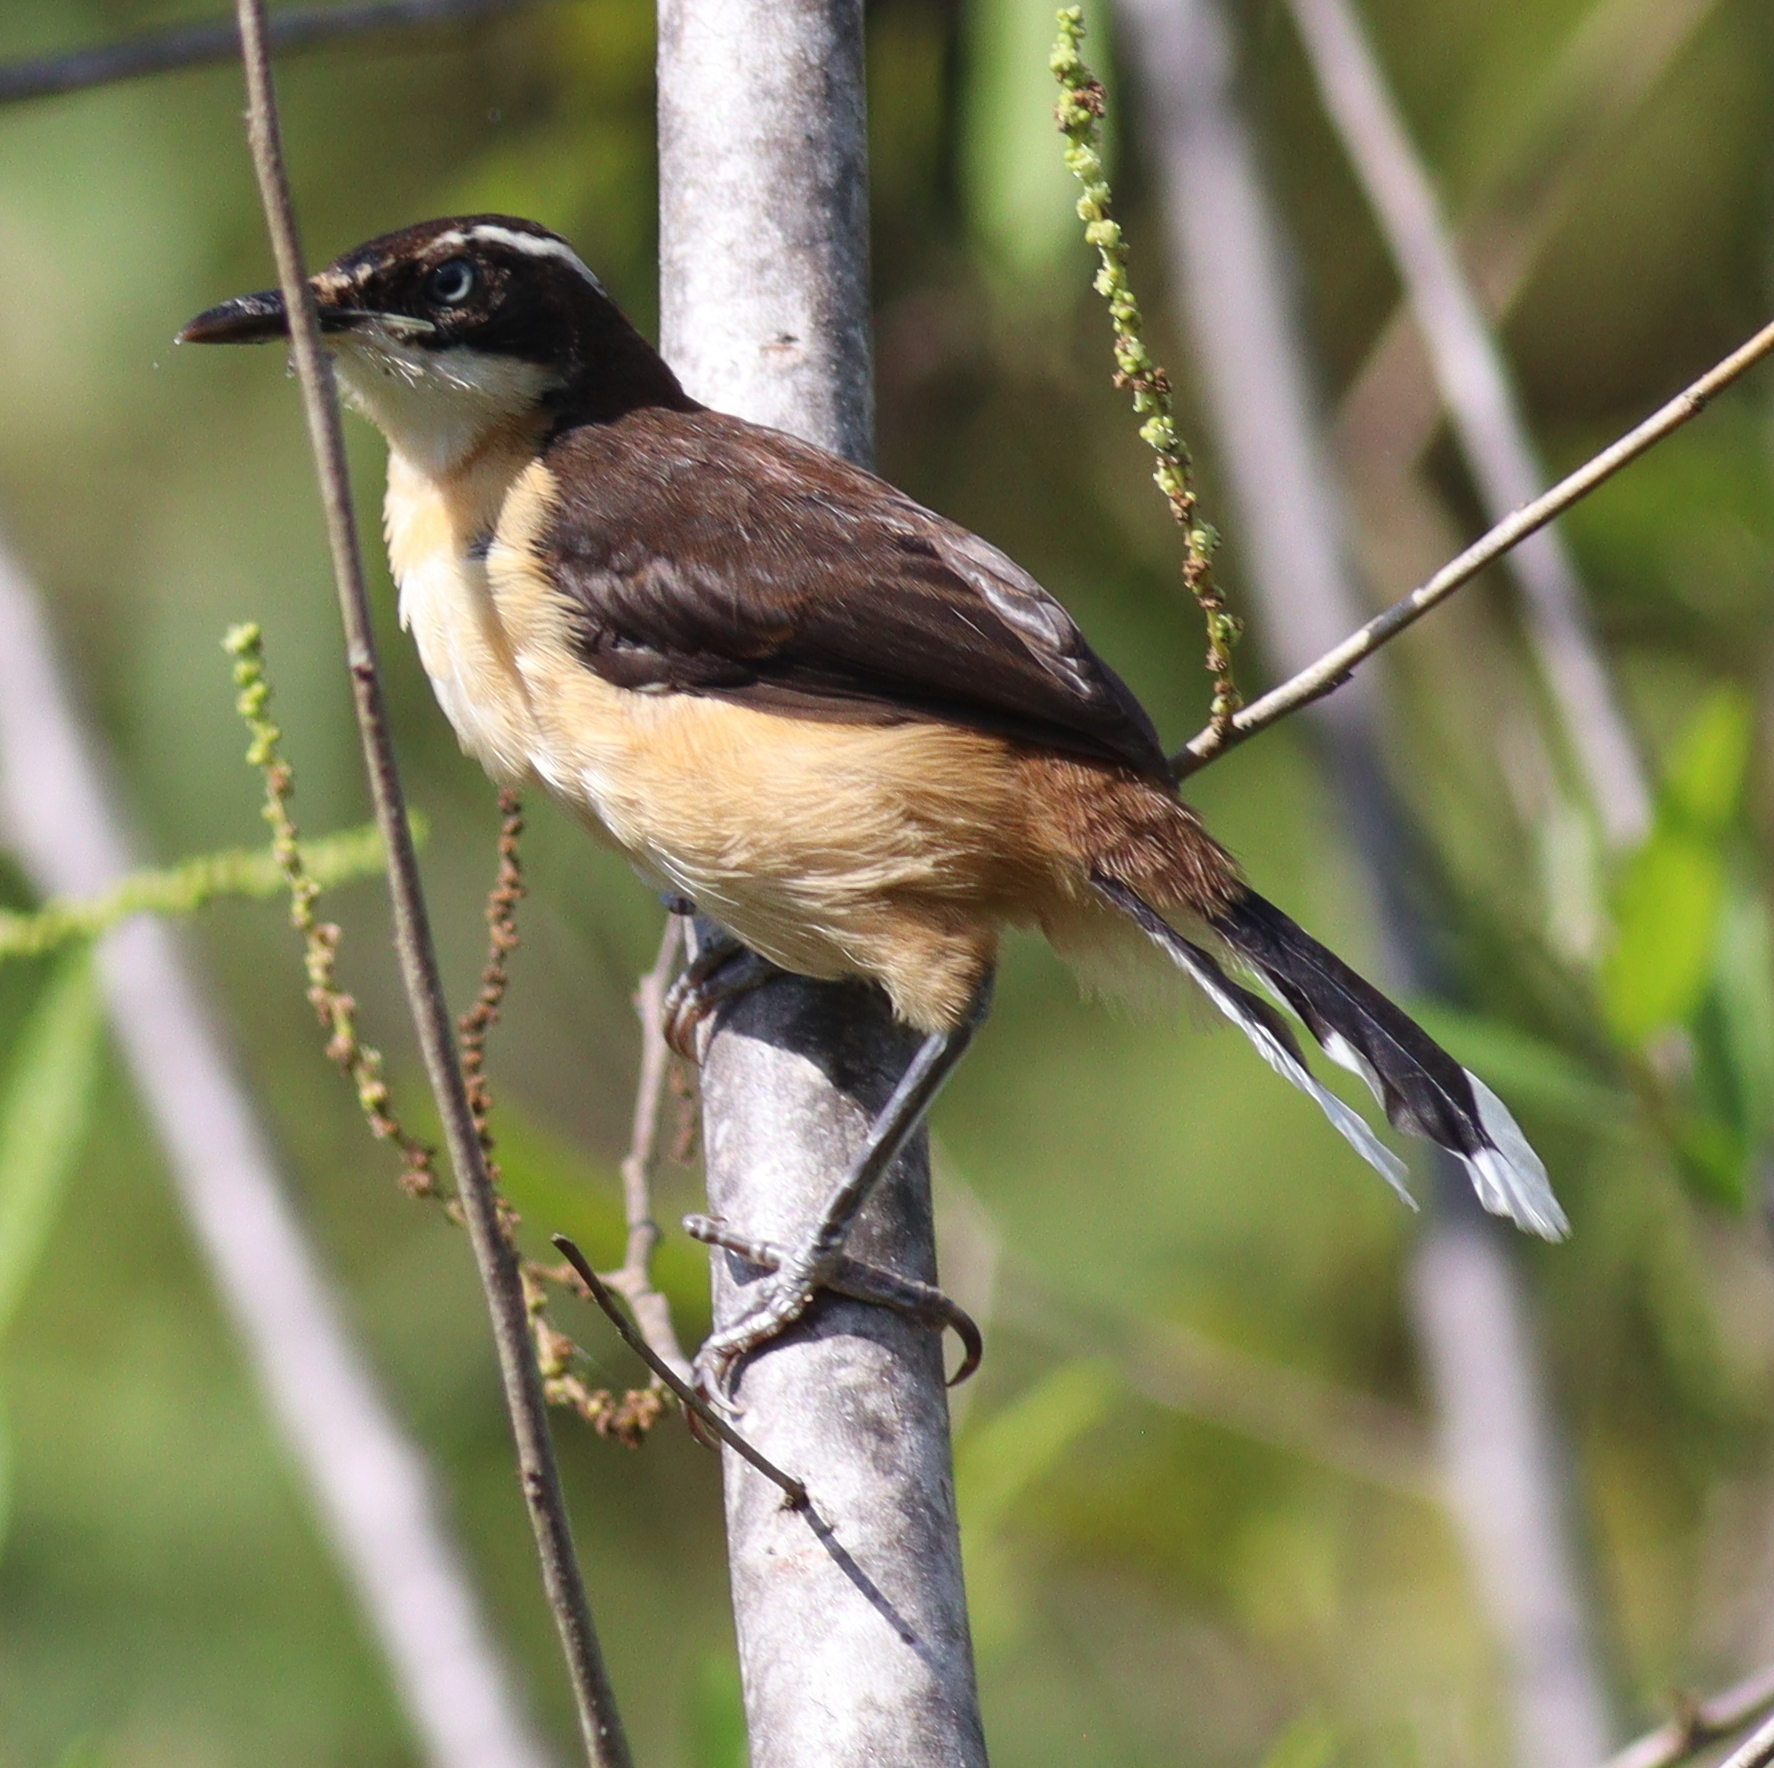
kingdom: Animalia
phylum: Chordata
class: Aves
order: Passeriformes
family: Donacobiidae
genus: Donacobius
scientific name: Donacobius atricapilla
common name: Black-capped donacobius
